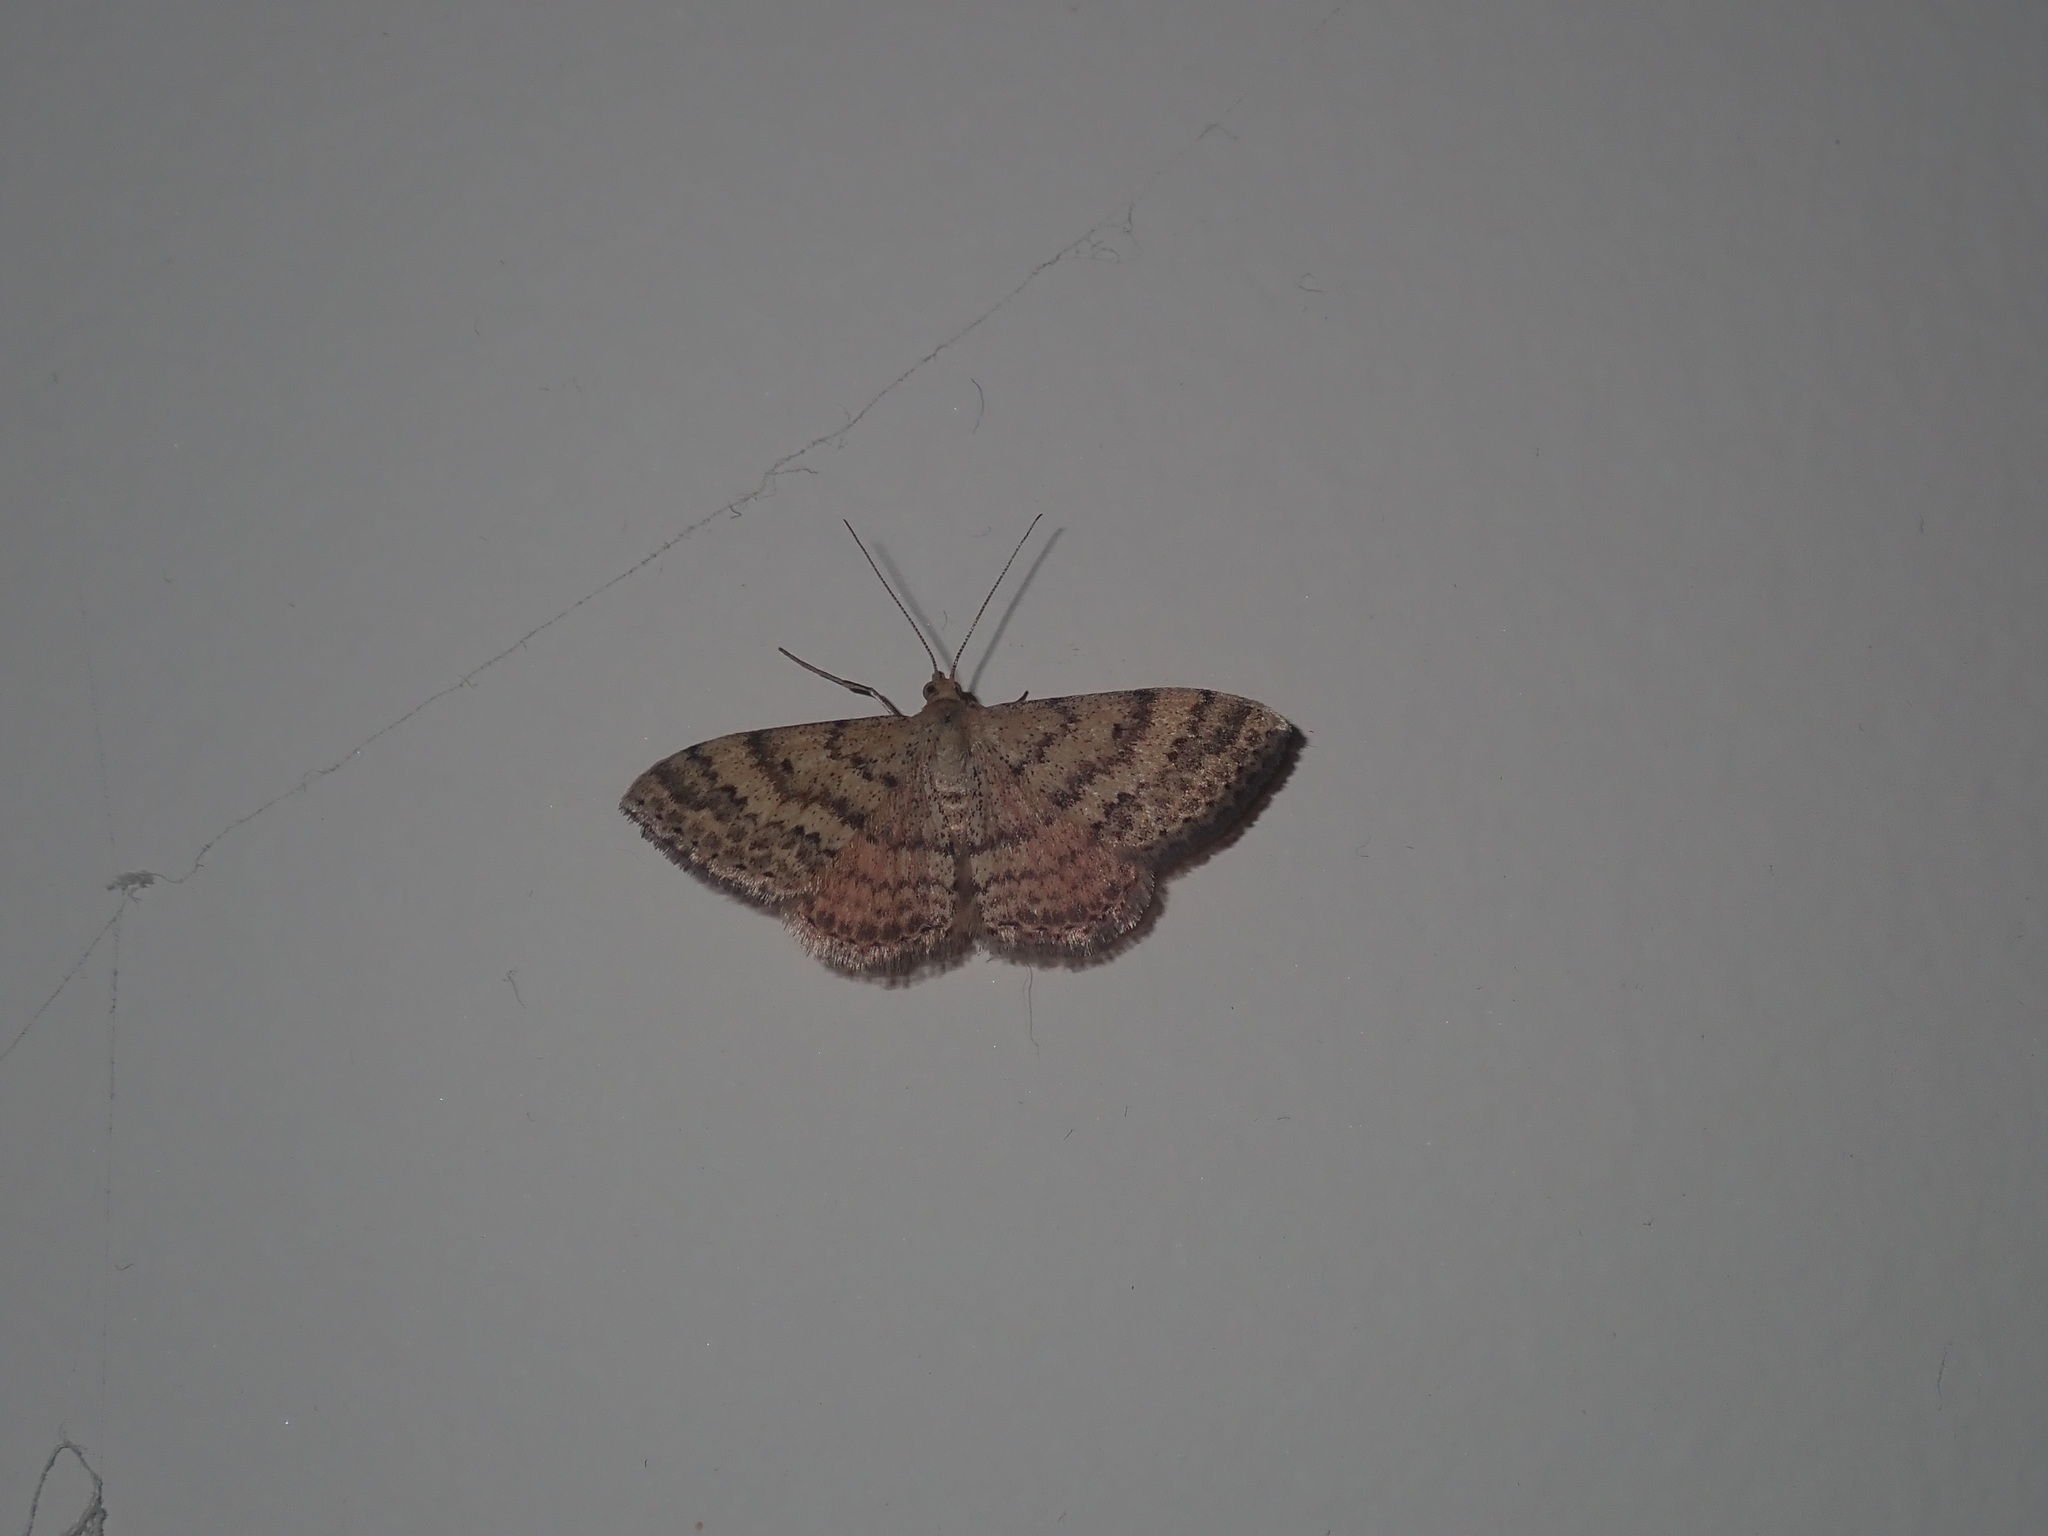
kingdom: Animalia
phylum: Arthropoda
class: Insecta
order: Lepidoptera
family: Geometridae
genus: Scopula
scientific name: Scopula rubraria
